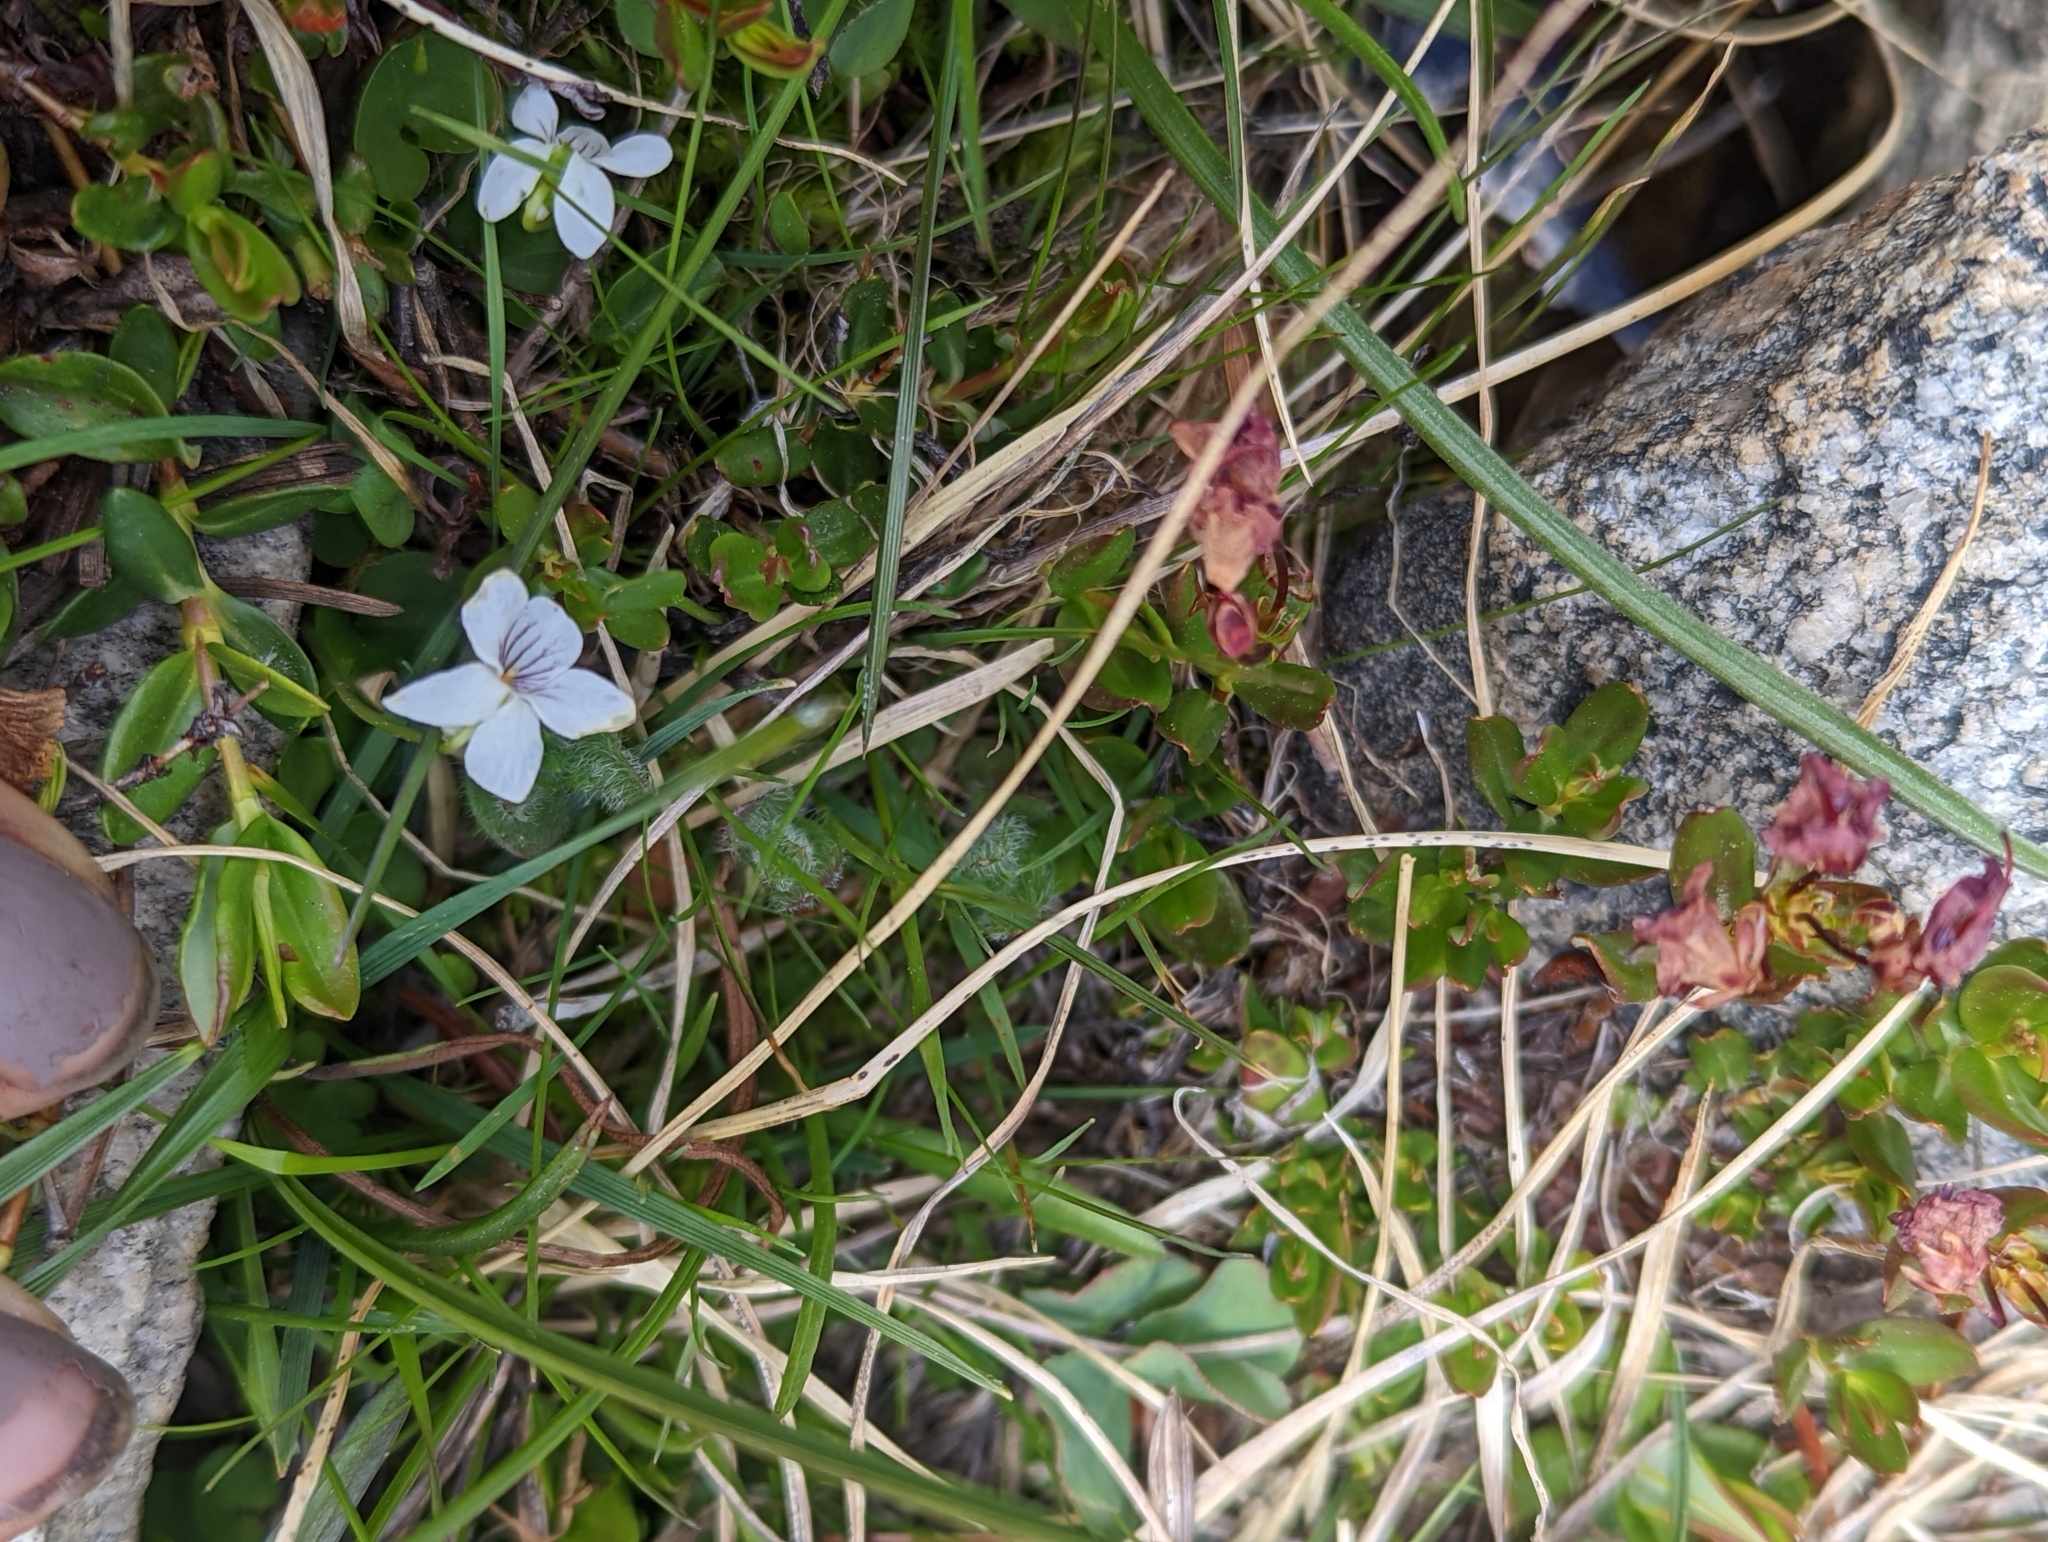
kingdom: Plantae
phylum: Tracheophyta
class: Magnoliopsida
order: Malpighiales
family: Violaceae
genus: Viola
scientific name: Viola macloskeyi
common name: Macloskey's violet
